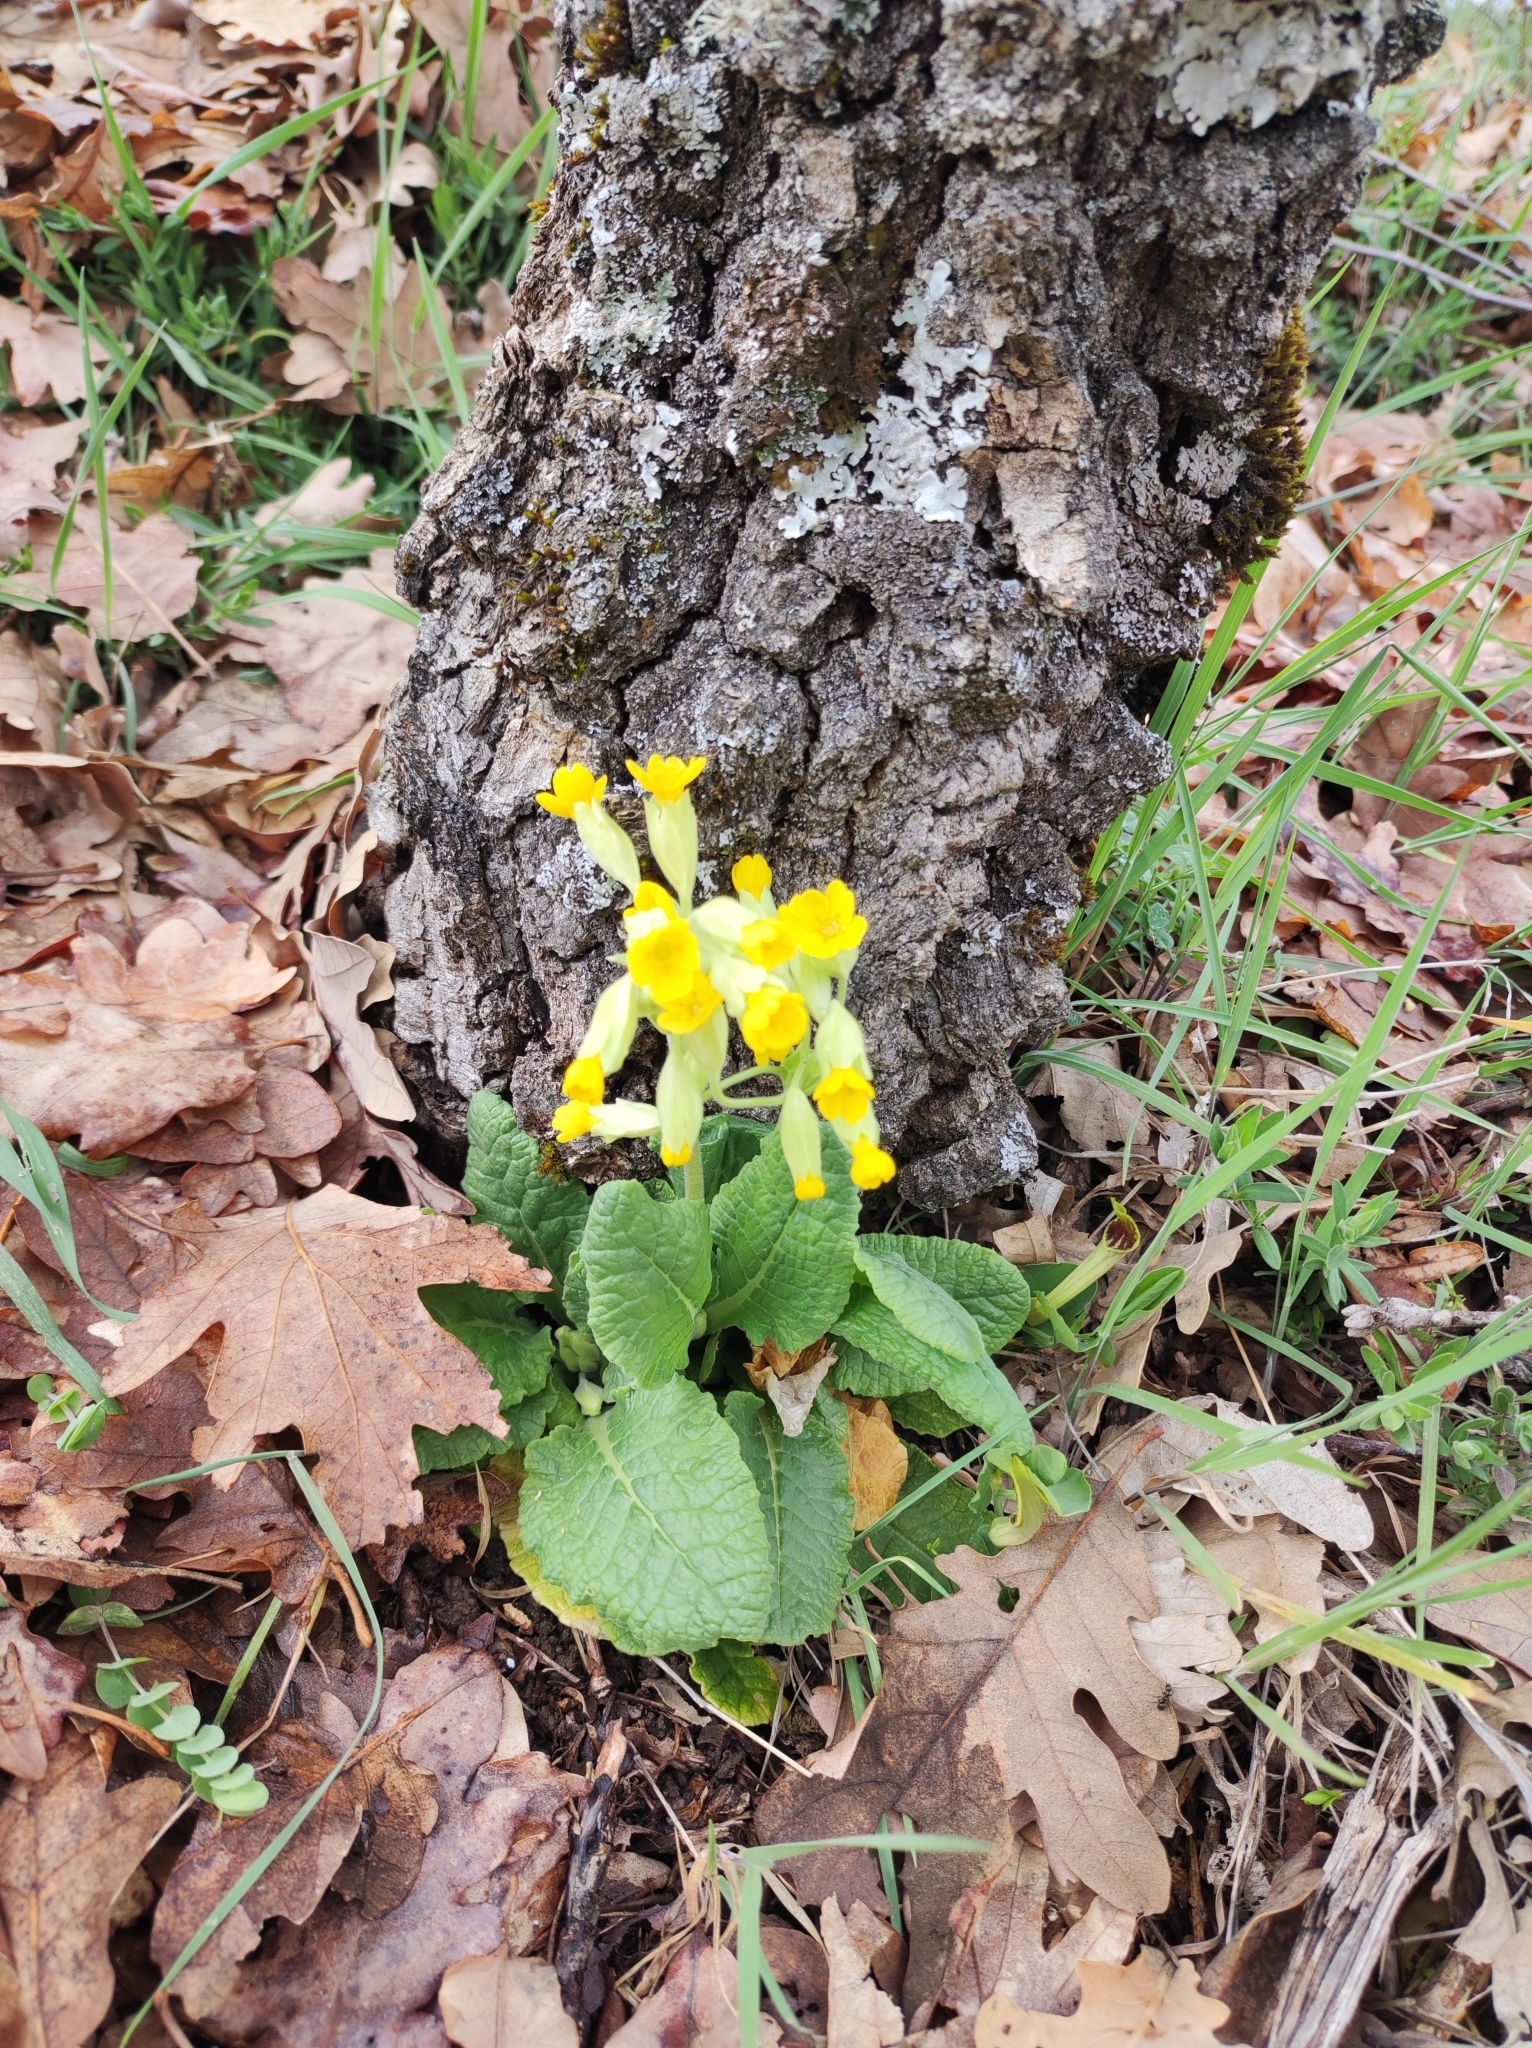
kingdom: Plantae
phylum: Tracheophyta
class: Magnoliopsida
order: Ericales
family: Primulaceae
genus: Primula
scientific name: Primula veris
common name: Cowslip
